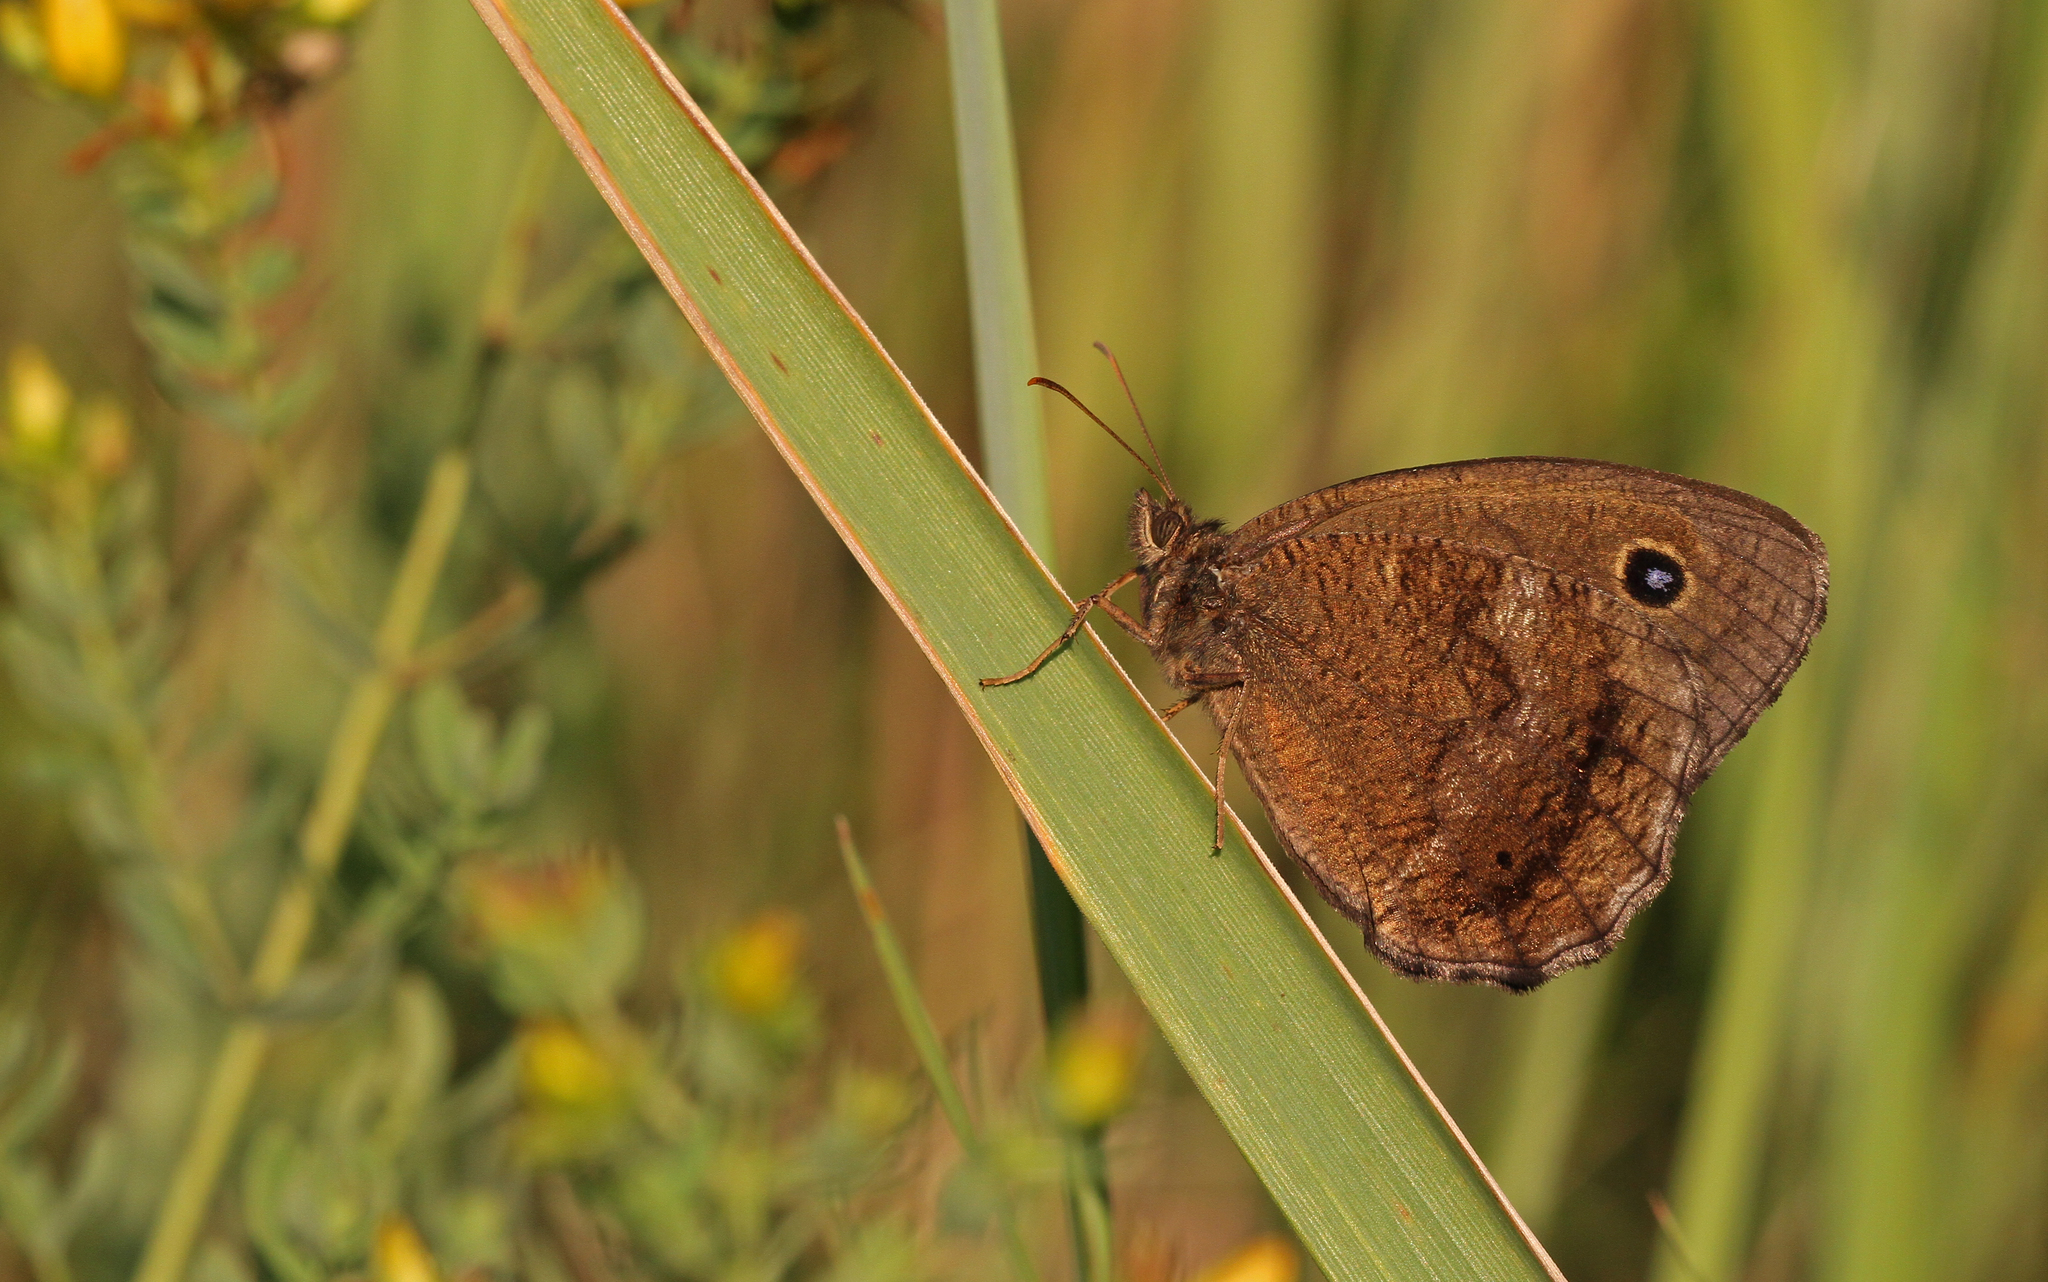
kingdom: Animalia
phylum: Arthropoda
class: Insecta
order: Lepidoptera
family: Nymphalidae
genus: Minois
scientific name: Minois dryas
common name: Dryad
